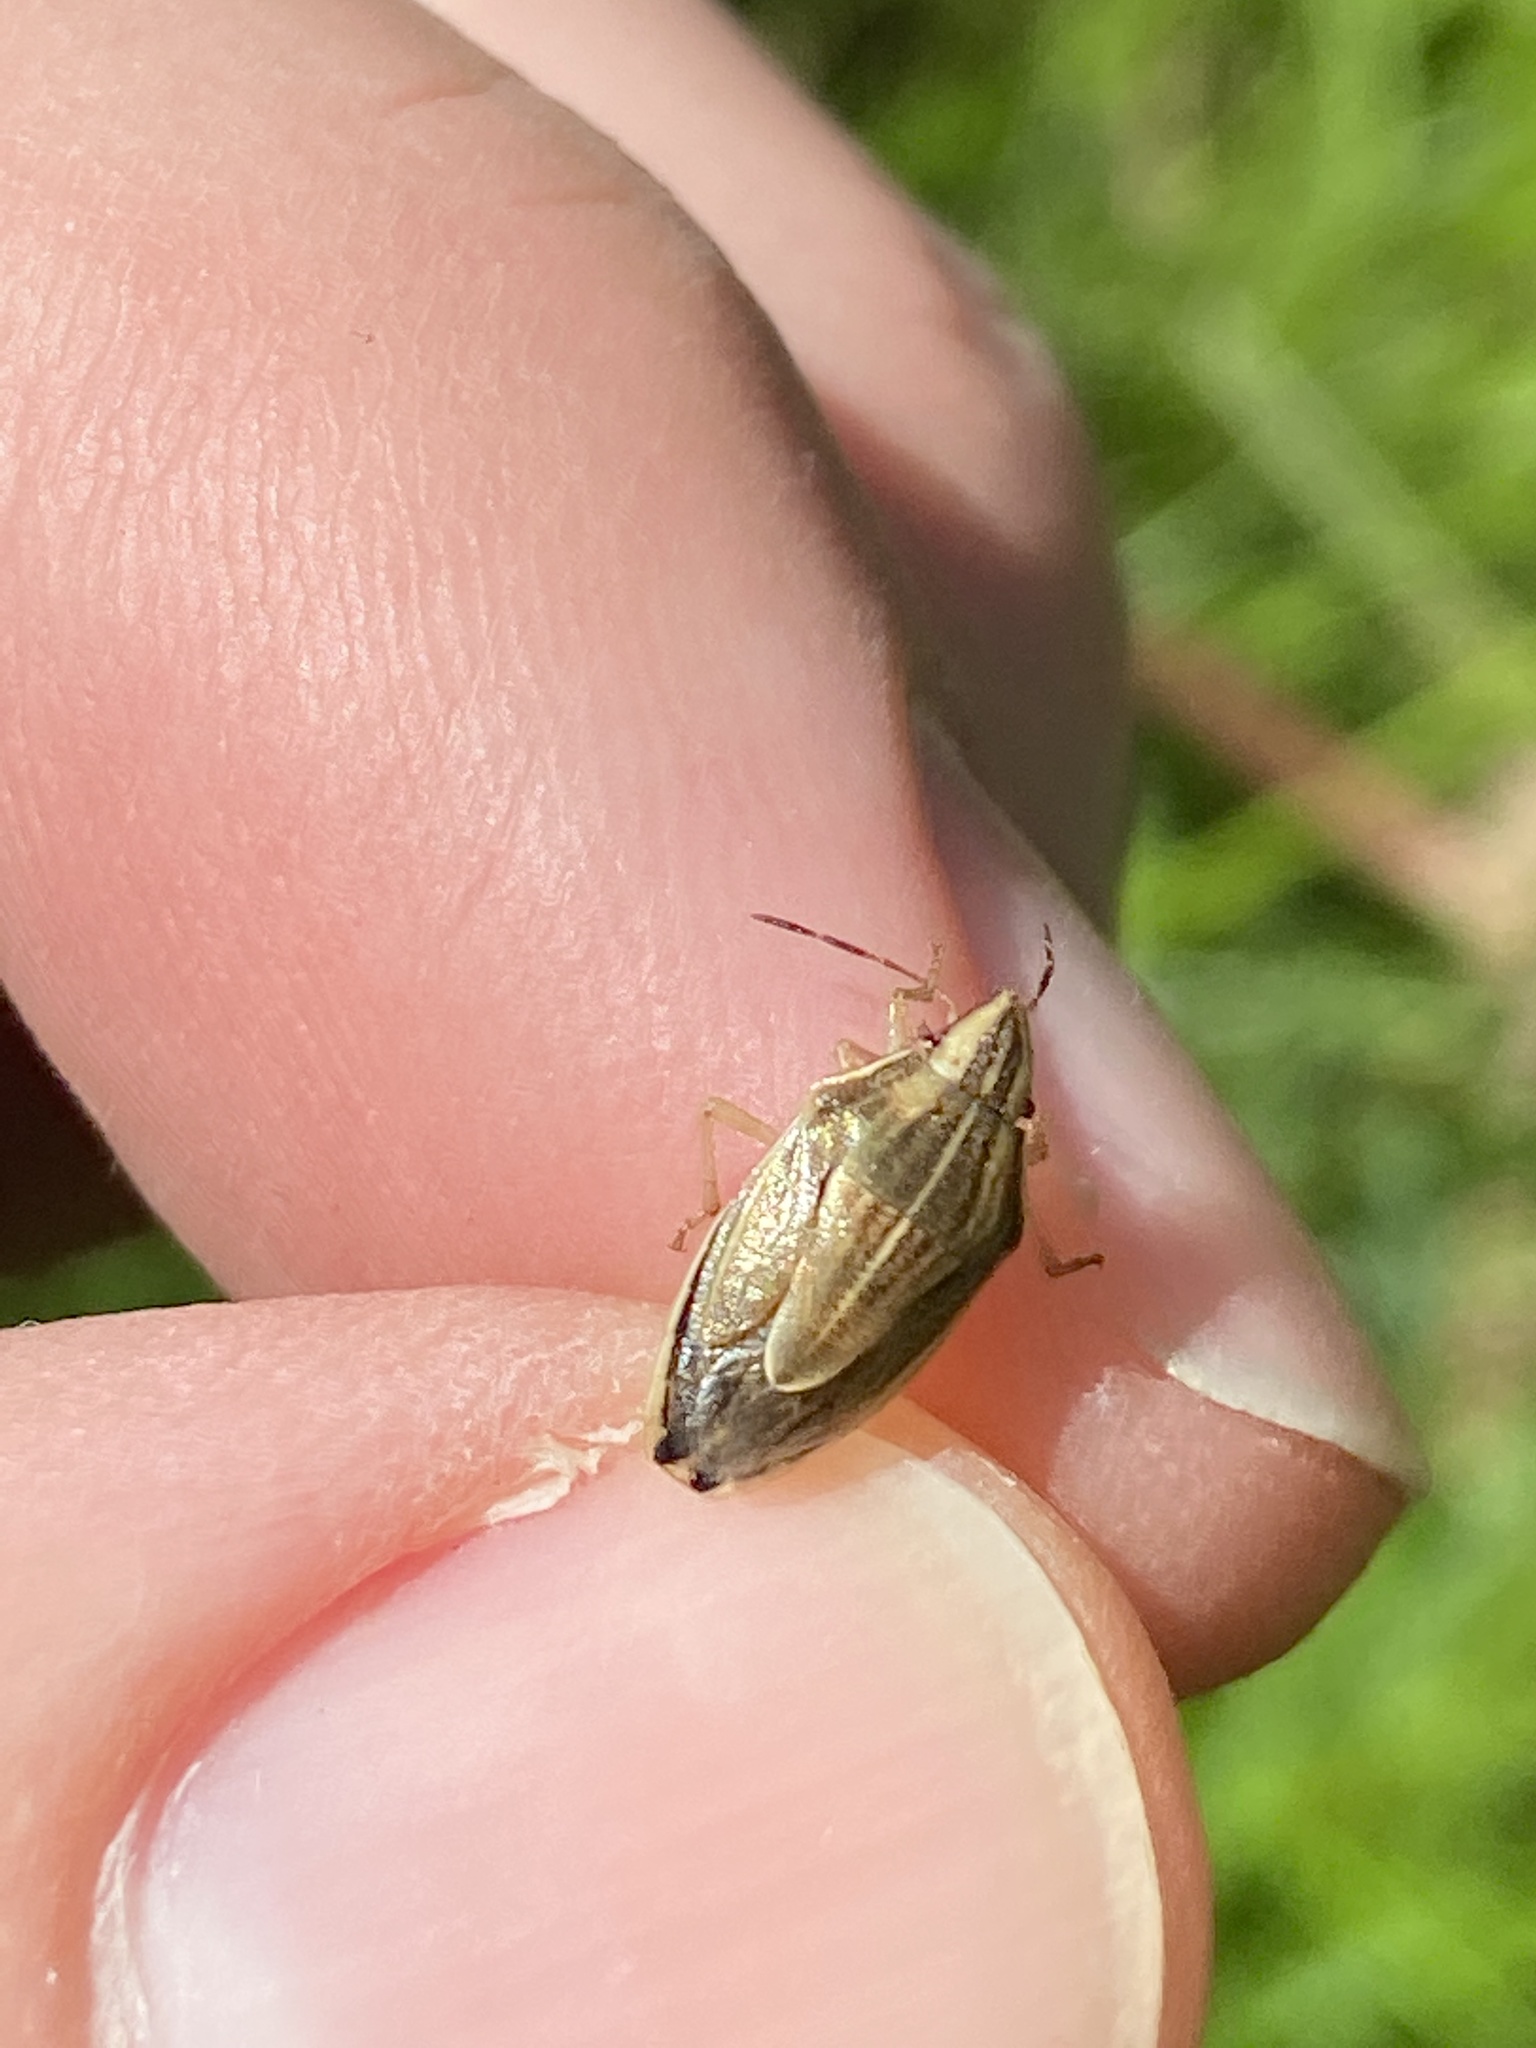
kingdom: Animalia
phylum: Arthropoda
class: Insecta
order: Hemiptera
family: Pentatomidae
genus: Aelia
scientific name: Aelia acuminata
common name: Bishop's mitre
